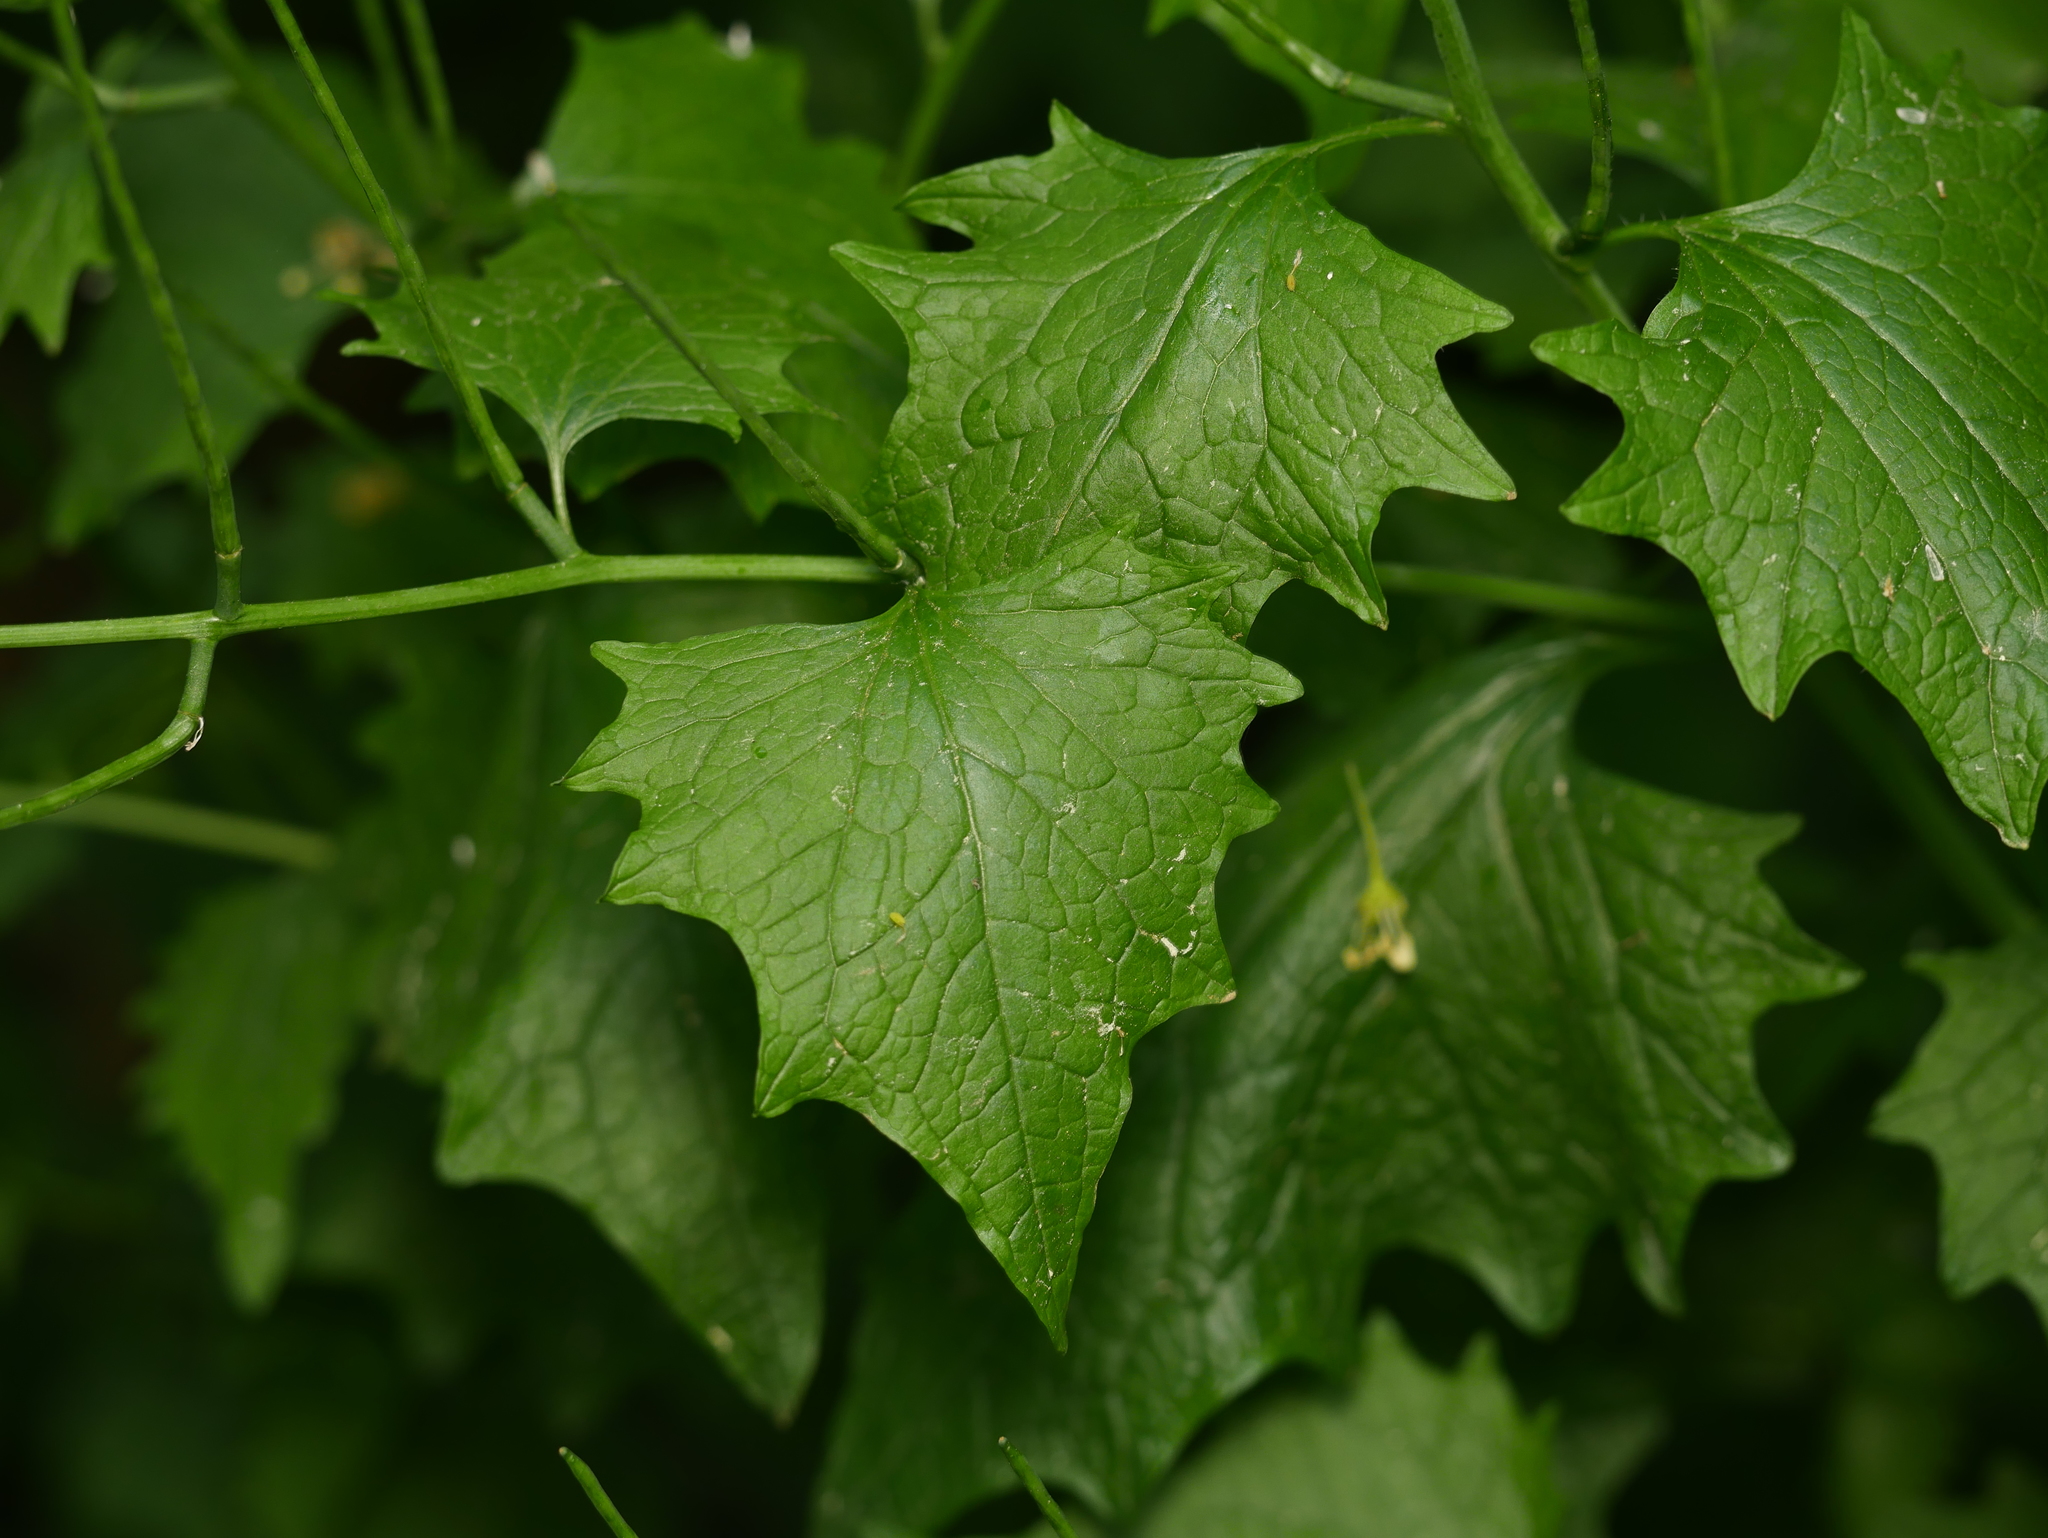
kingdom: Plantae
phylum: Tracheophyta
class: Magnoliopsida
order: Brassicales
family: Brassicaceae
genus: Alliaria
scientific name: Alliaria petiolata
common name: Garlic mustard
